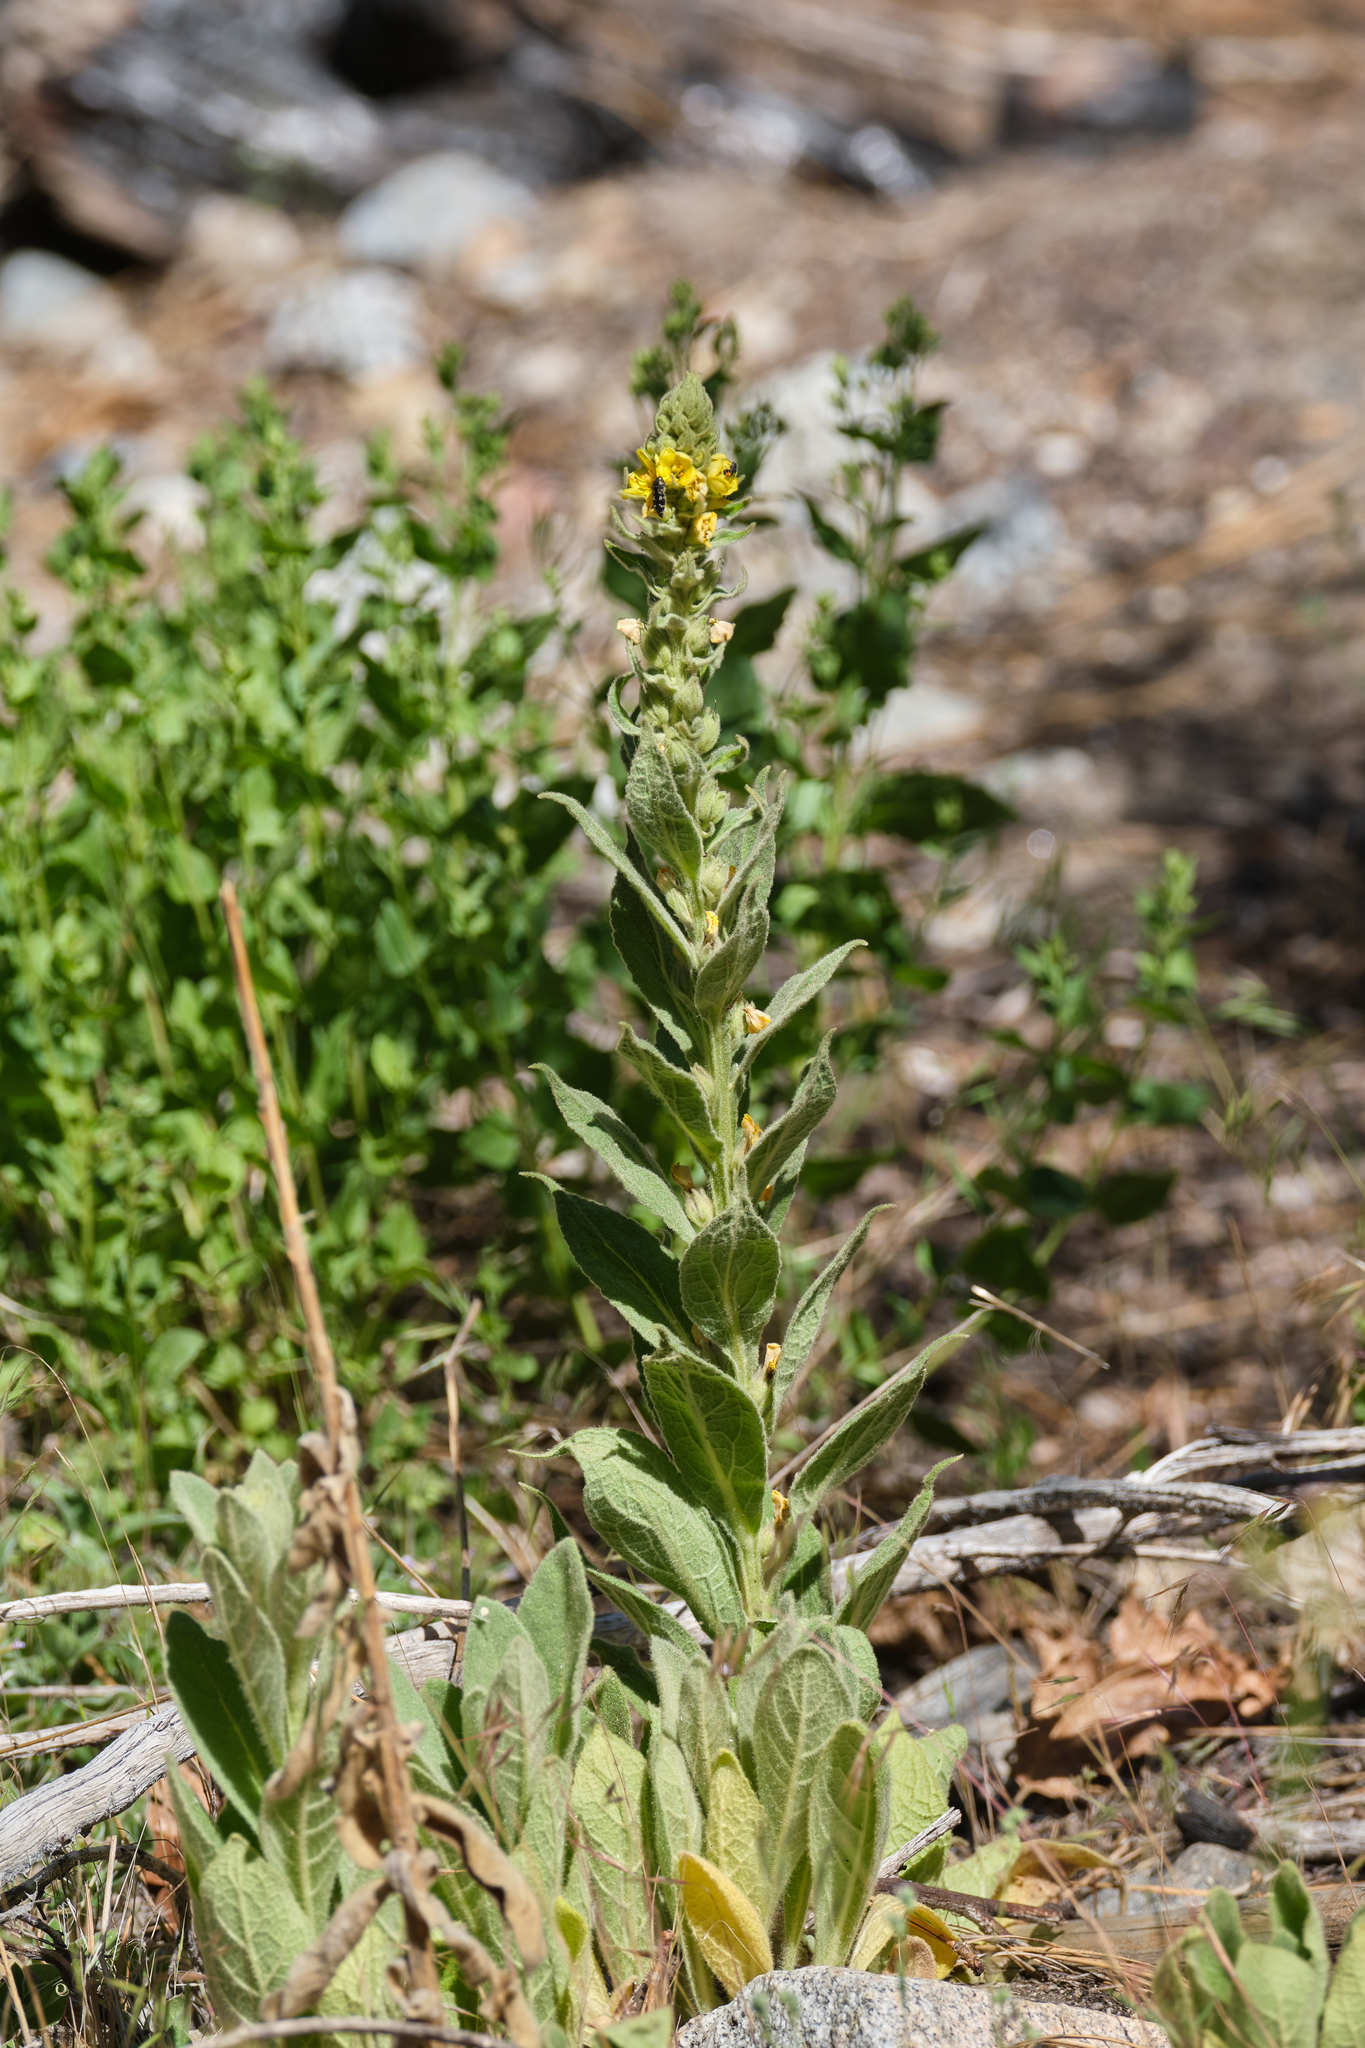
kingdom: Plantae
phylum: Tracheophyta
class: Magnoliopsida
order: Lamiales
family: Scrophulariaceae
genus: Verbascum
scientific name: Verbascum thapsus
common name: Common mullein
